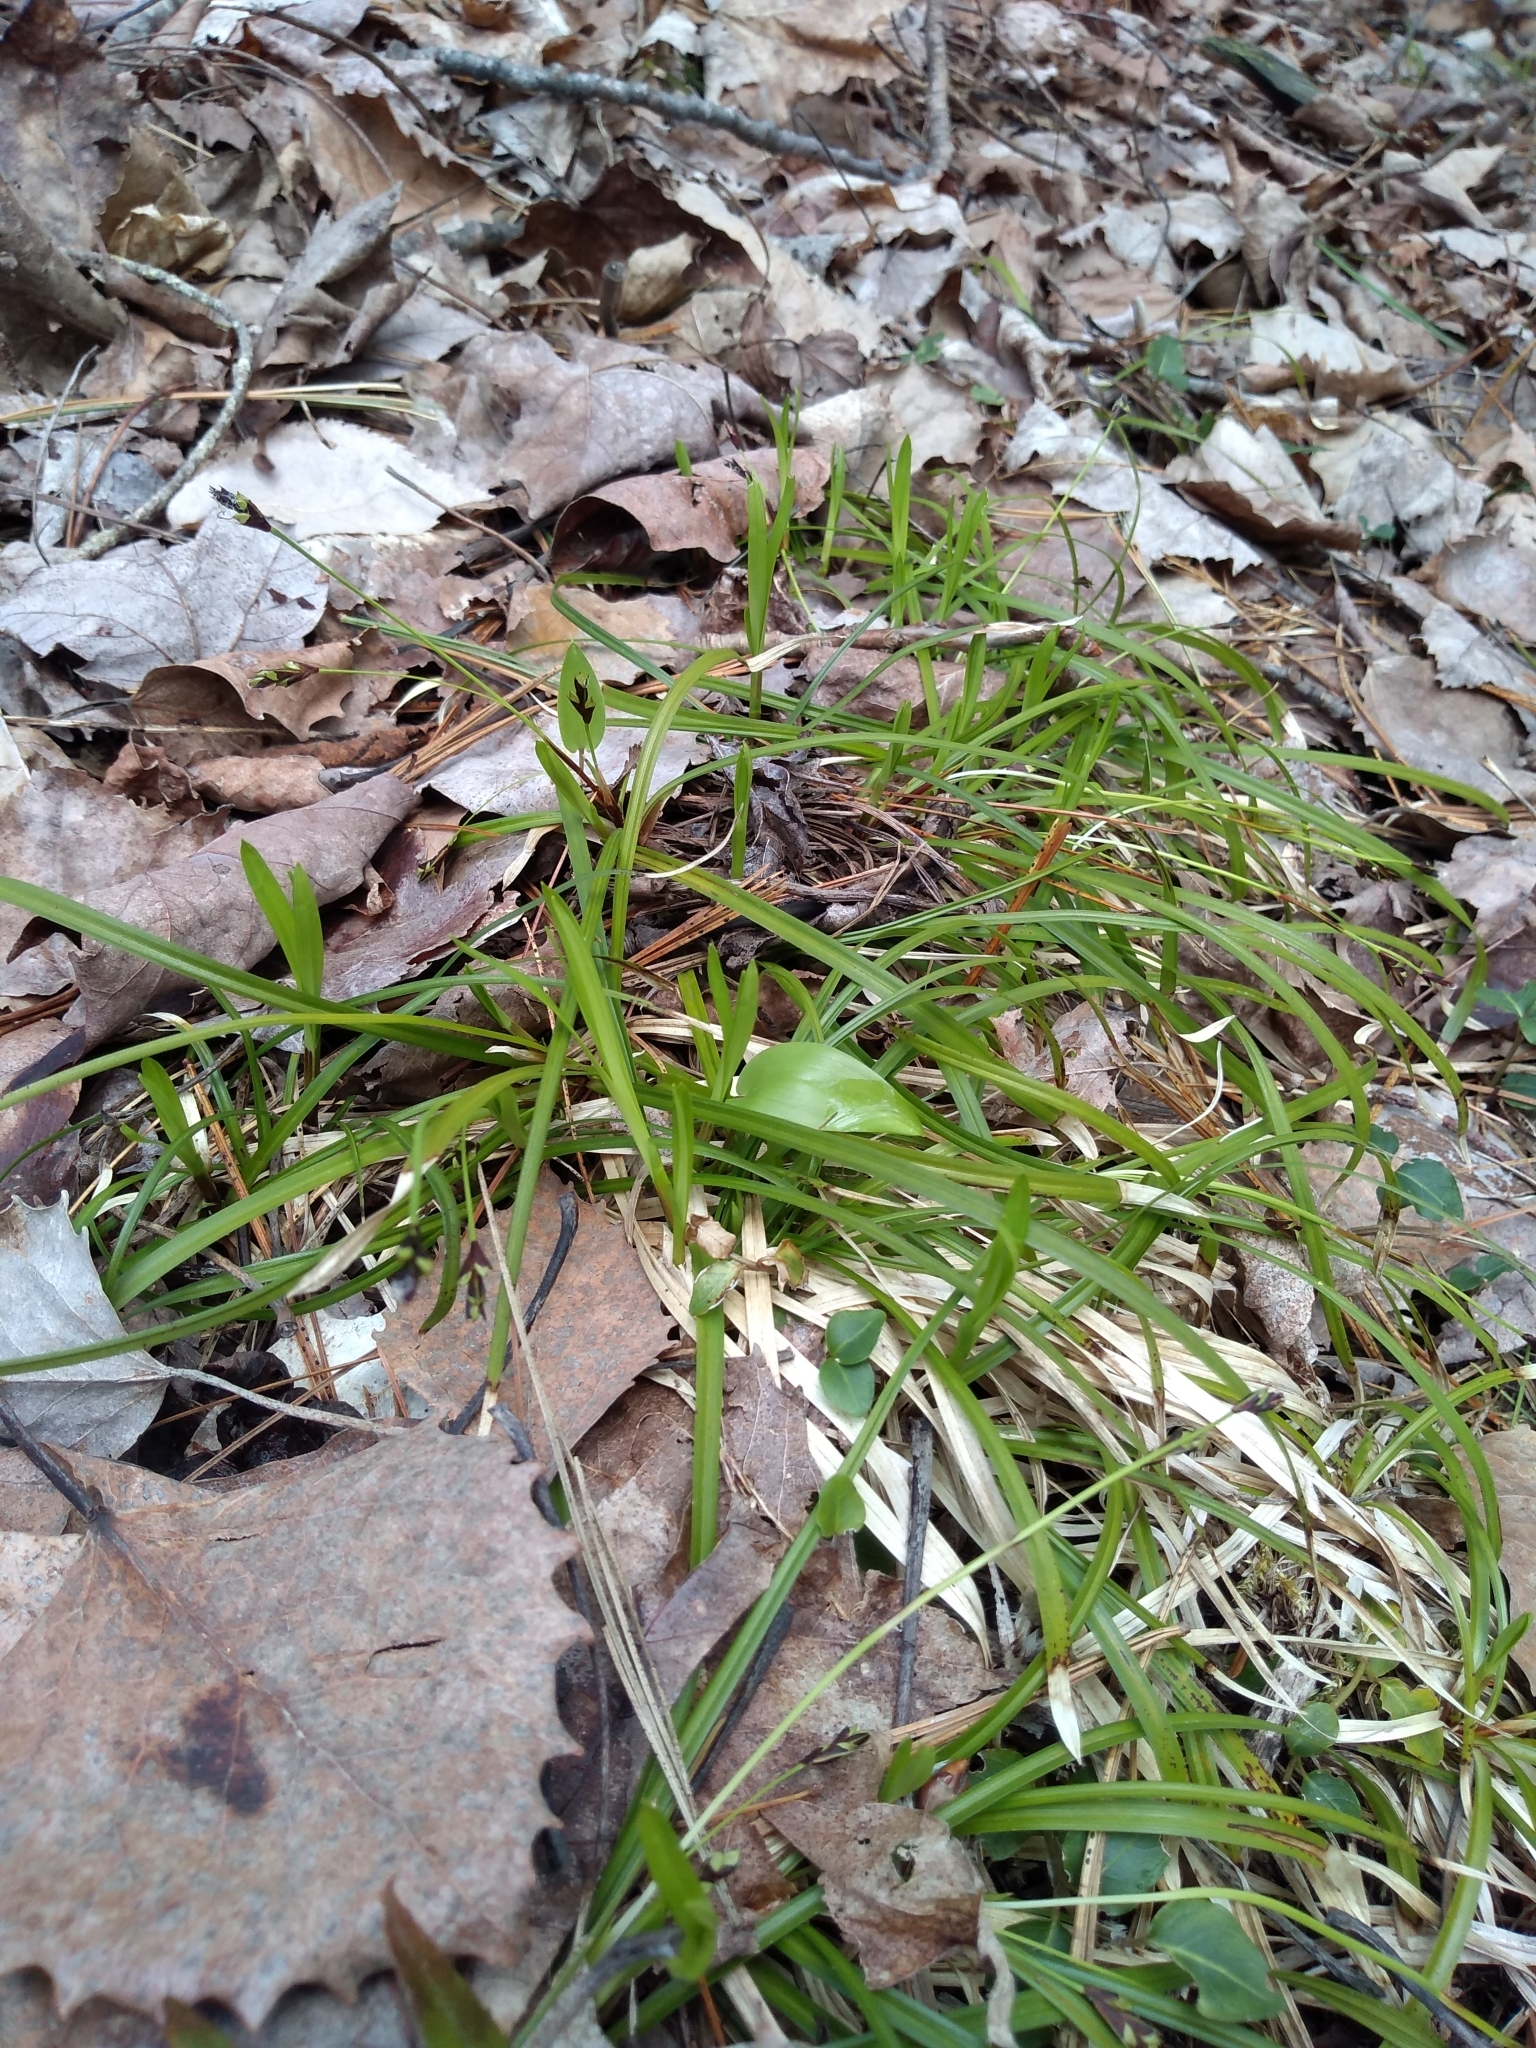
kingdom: Plantae
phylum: Tracheophyta
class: Liliopsida
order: Poales
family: Cyperaceae
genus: Carex
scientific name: Carex pedunculata
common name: Pedunculate sedge
